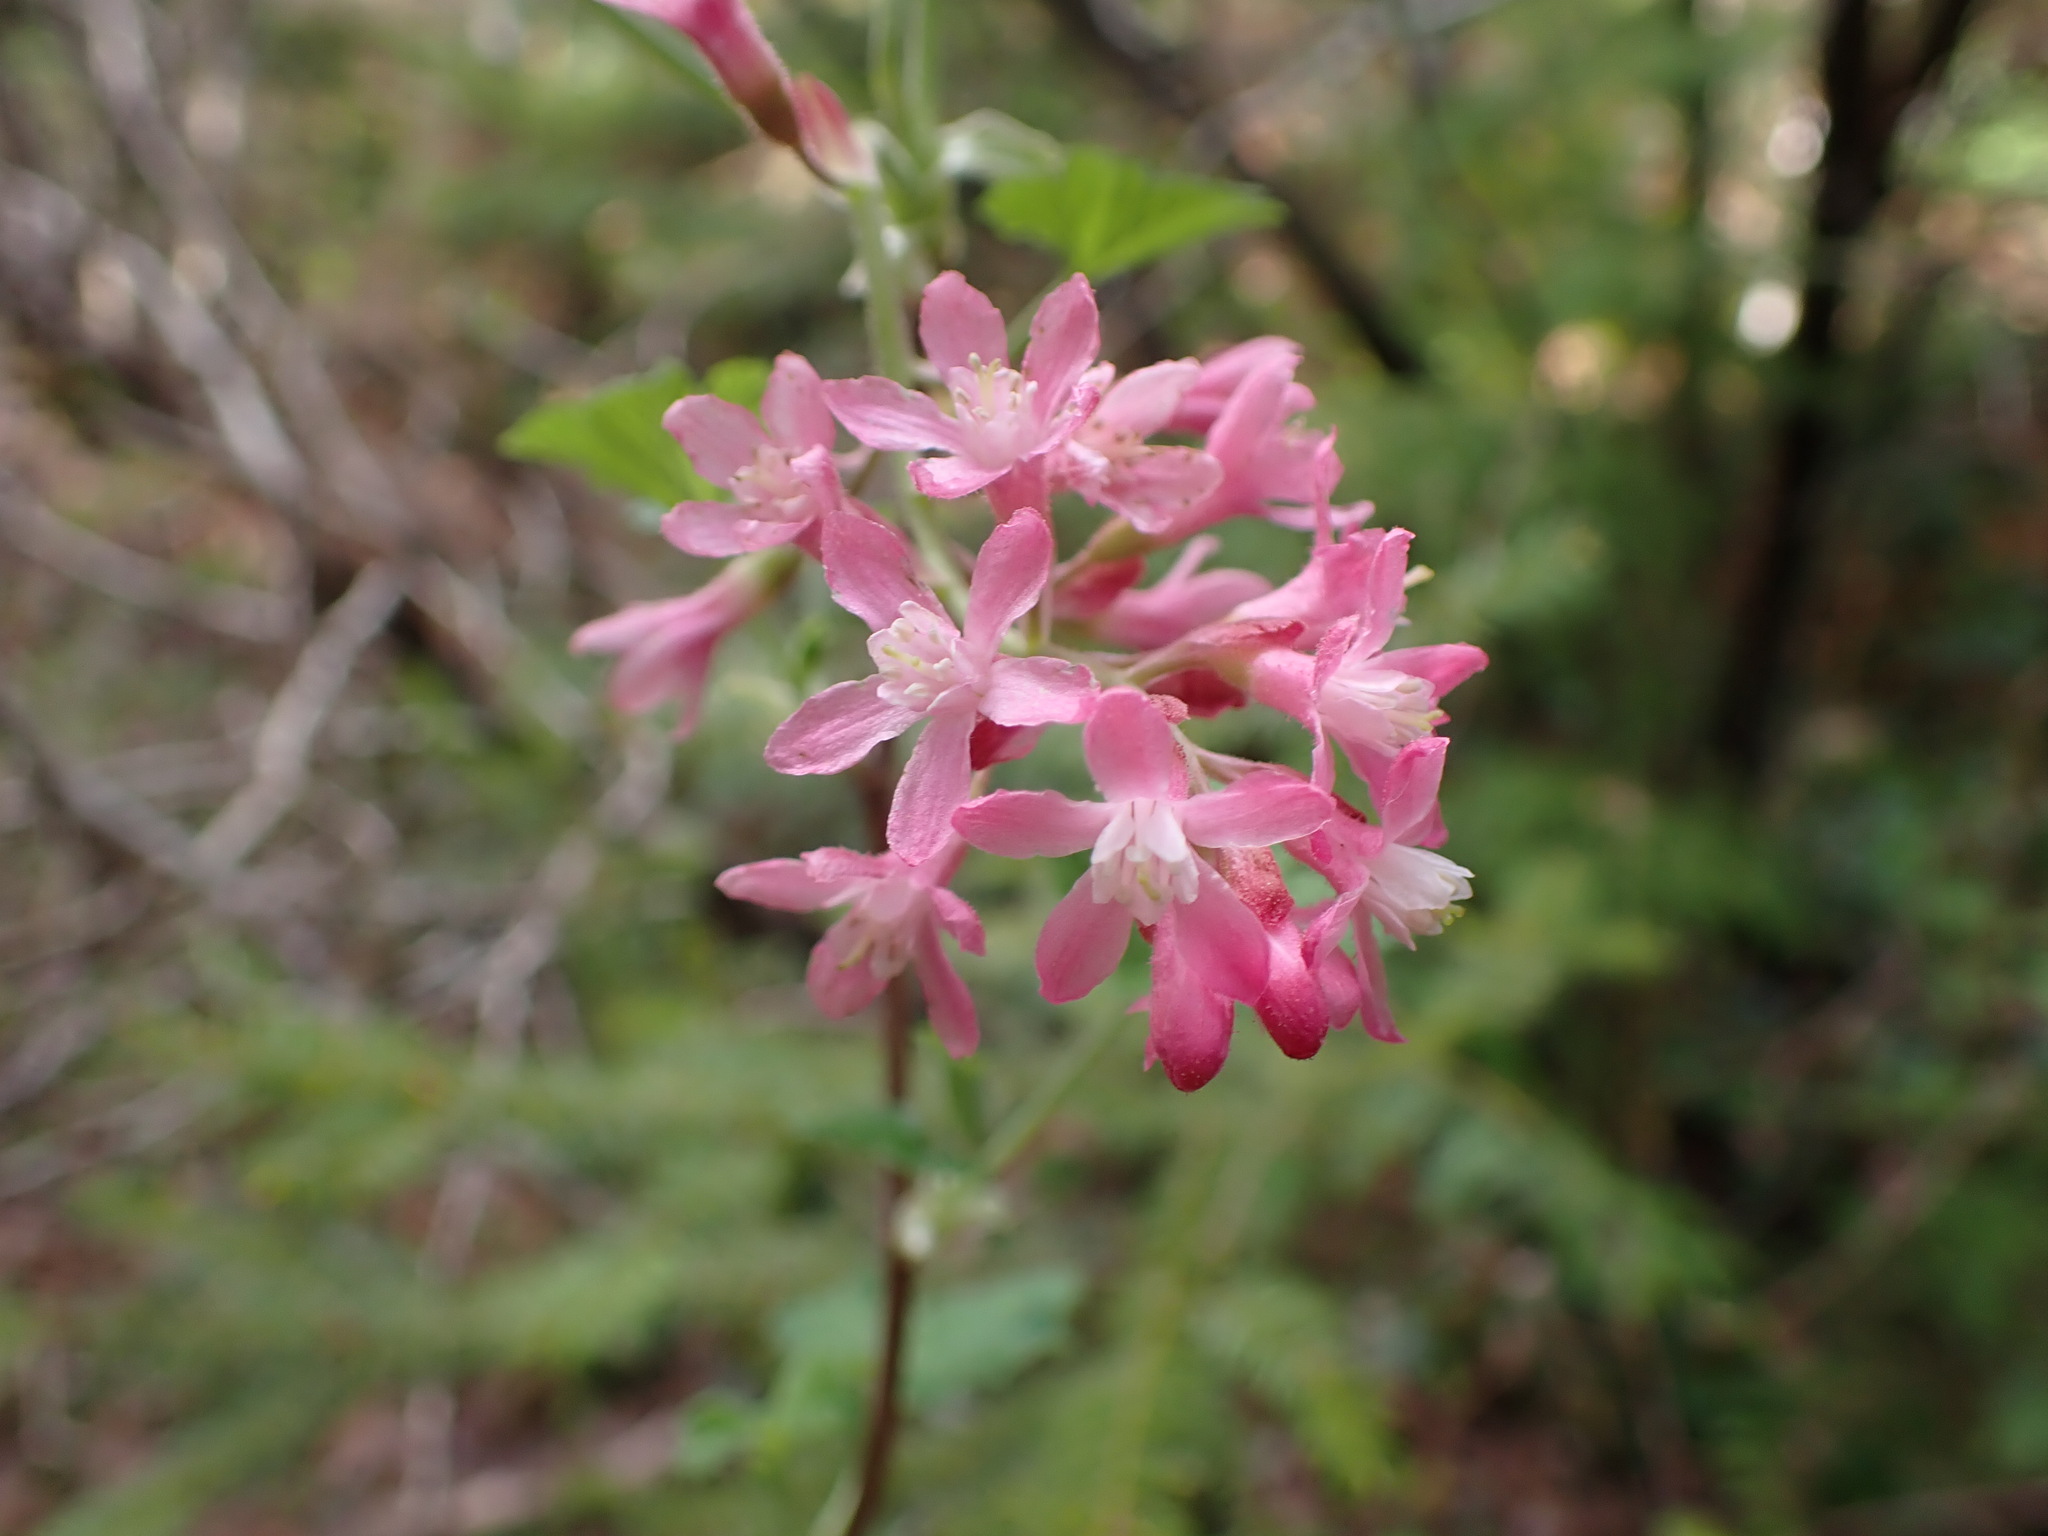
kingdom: Plantae
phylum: Tracheophyta
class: Magnoliopsida
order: Saxifragales
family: Grossulariaceae
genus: Ribes
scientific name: Ribes sanguineum
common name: Flowering currant
